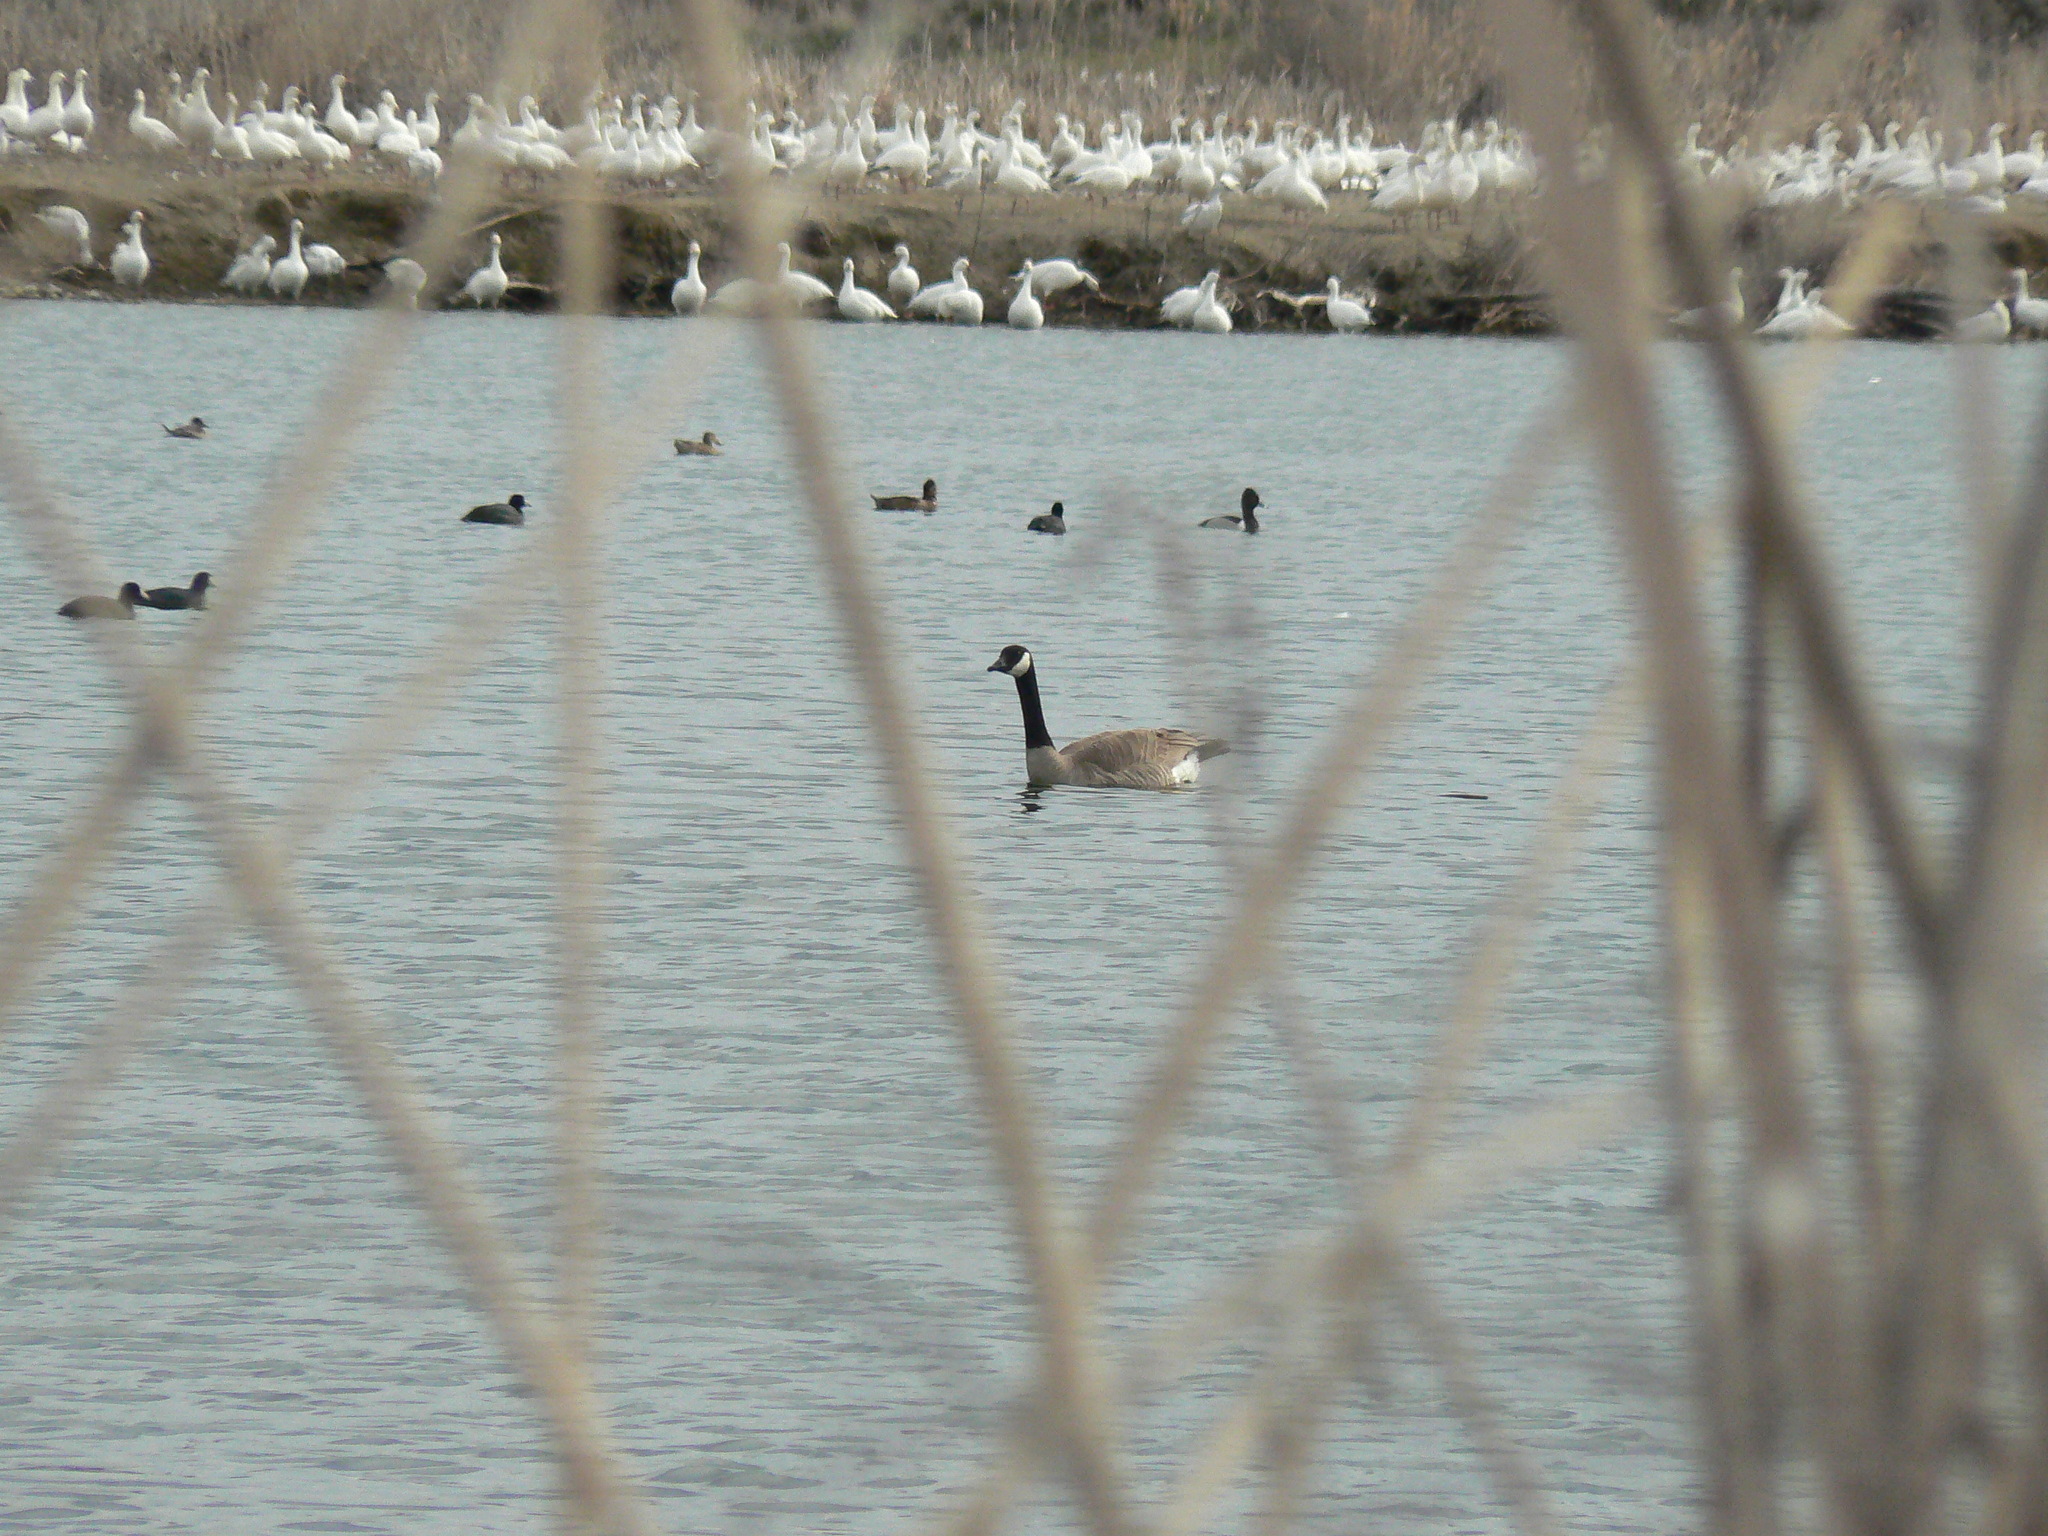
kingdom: Animalia
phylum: Chordata
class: Aves
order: Anseriformes
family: Anatidae
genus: Branta
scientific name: Branta canadensis
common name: Canada goose
